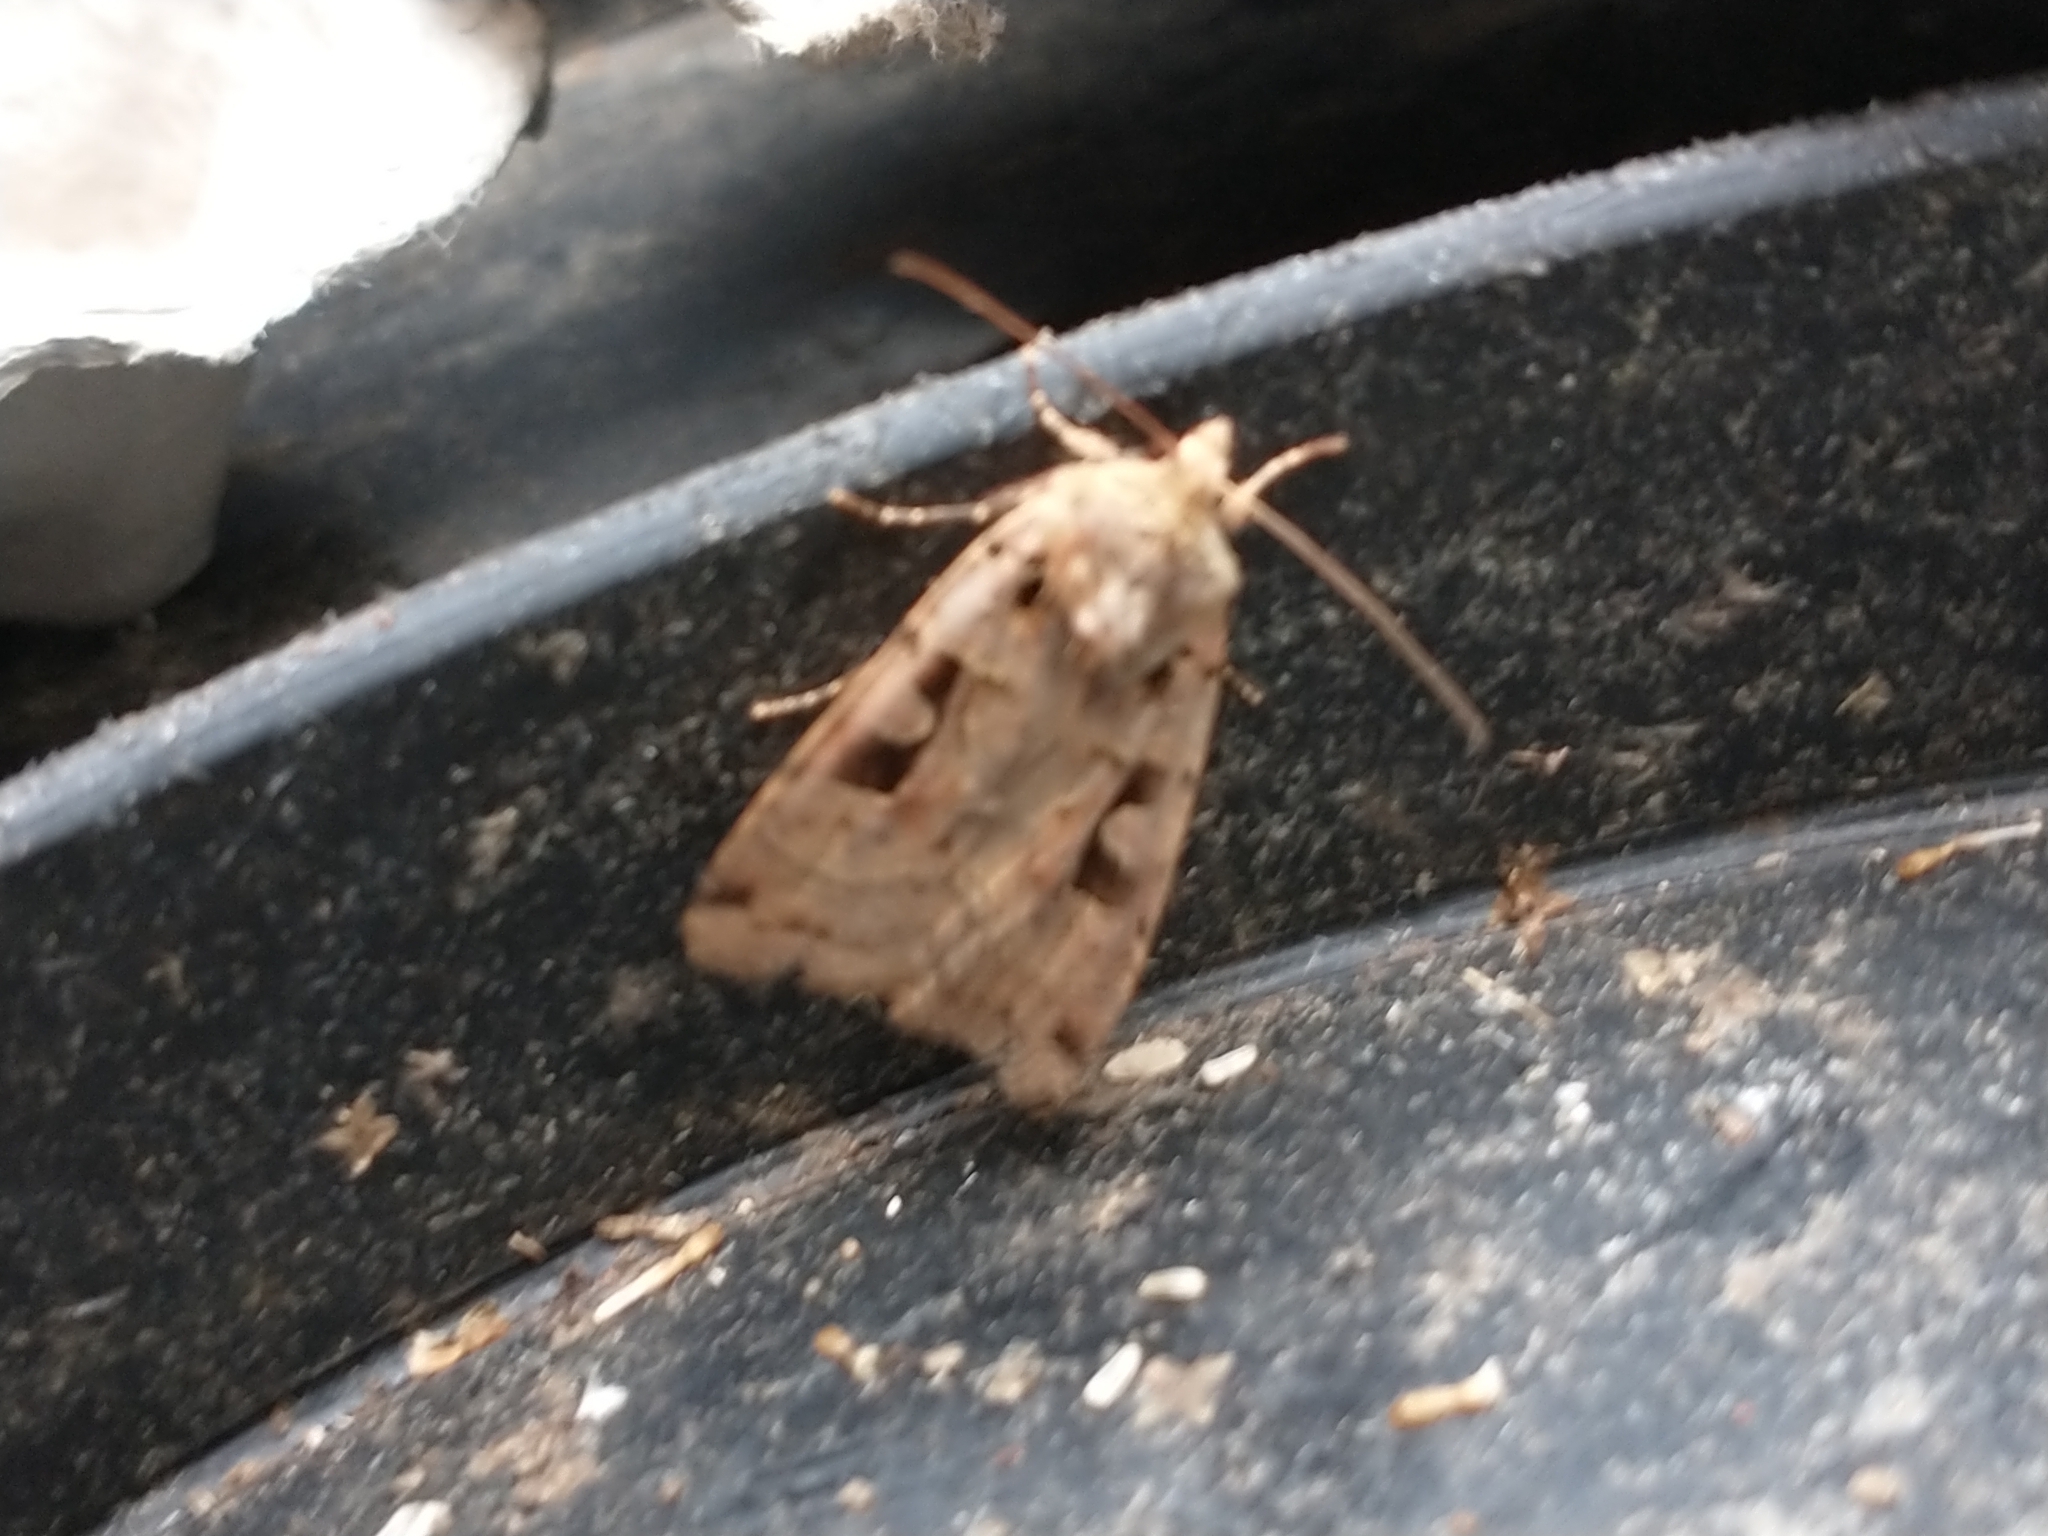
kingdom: Animalia
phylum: Arthropoda
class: Insecta
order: Lepidoptera
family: Noctuidae
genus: Xestia
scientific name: Xestia triangulum
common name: Double square-spot
